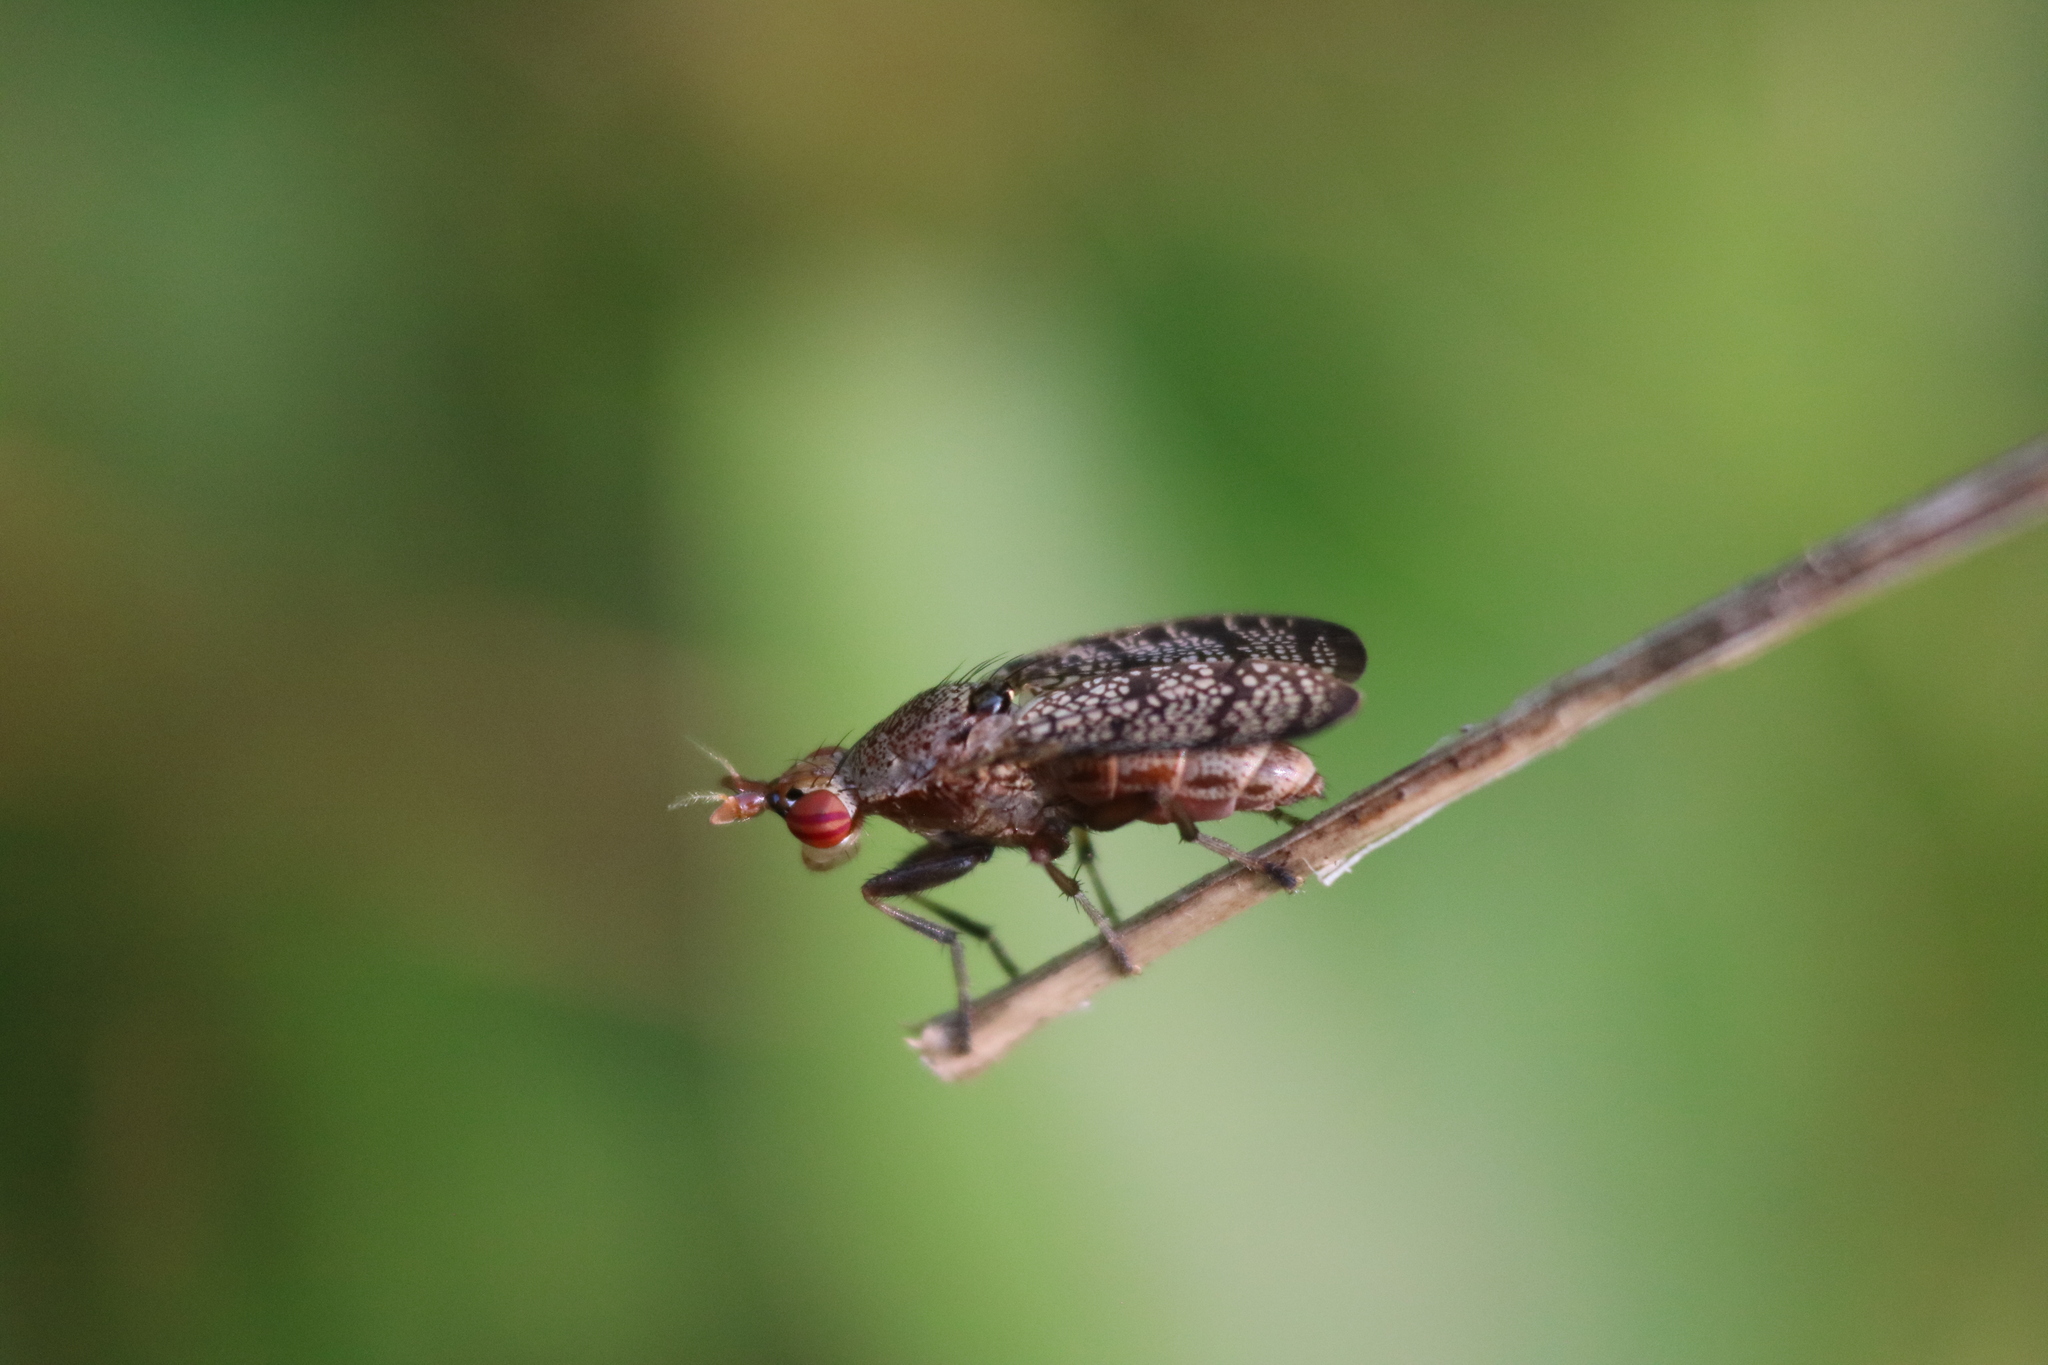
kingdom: Animalia
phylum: Arthropoda
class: Insecta
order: Diptera
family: Sciomyzidae
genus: Euthycera
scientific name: Euthycera flavescens
